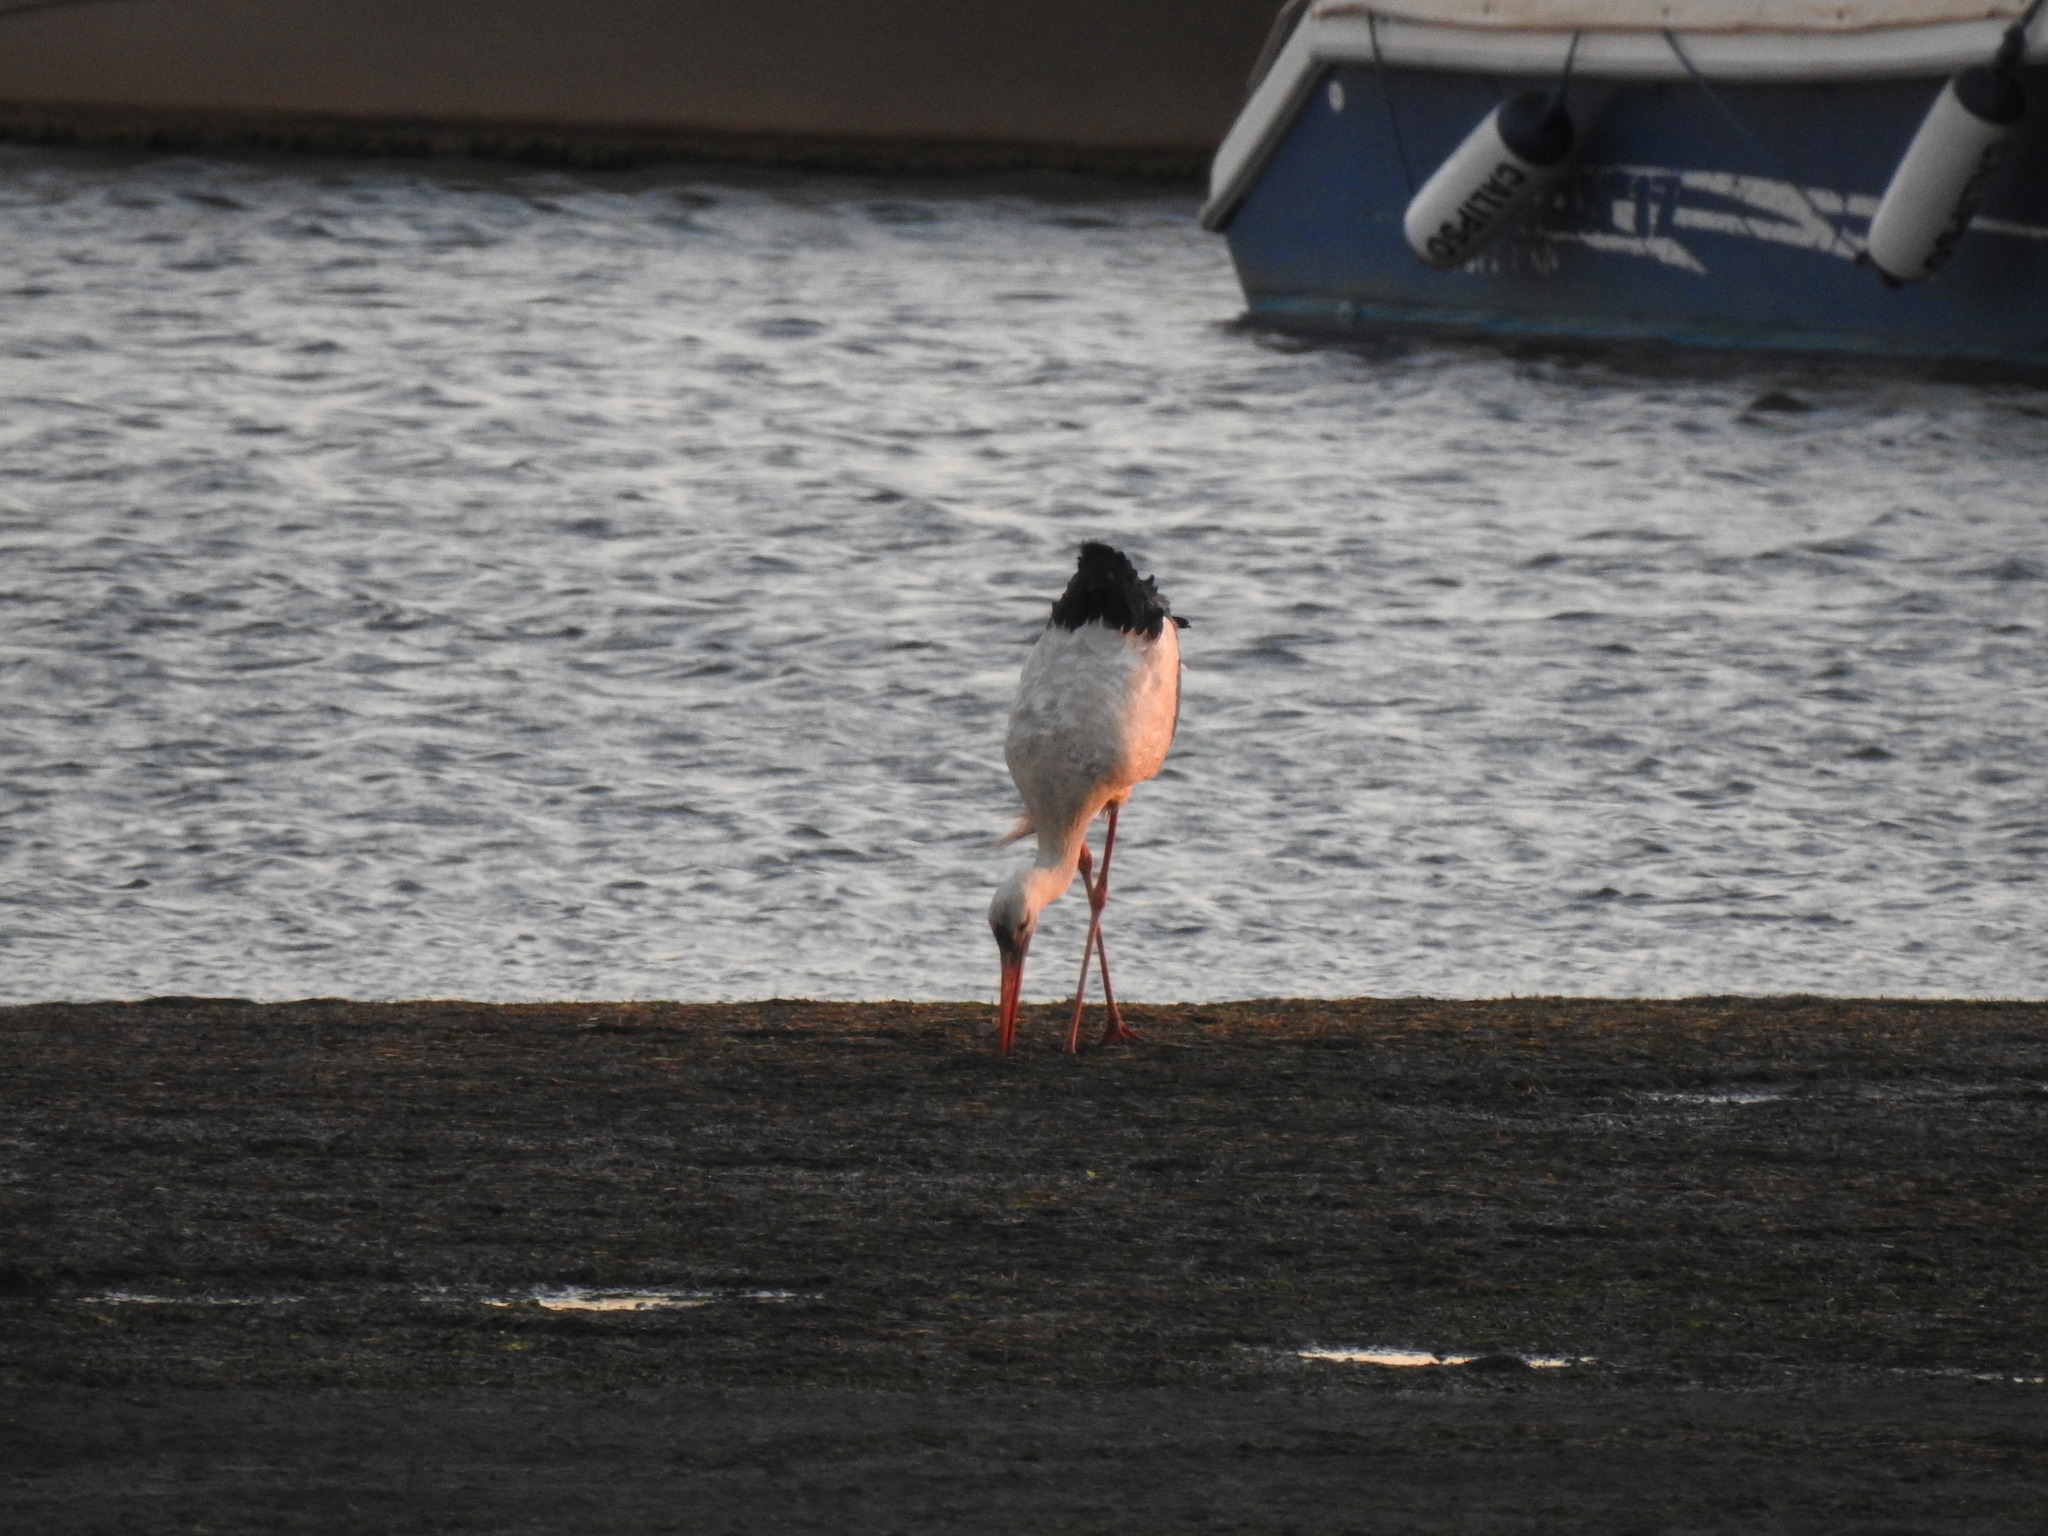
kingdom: Animalia
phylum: Chordata
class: Aves
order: Ciconiiformes
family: Ciconiidae
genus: Ciconia
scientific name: Ciconia ciconia
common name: White stork
